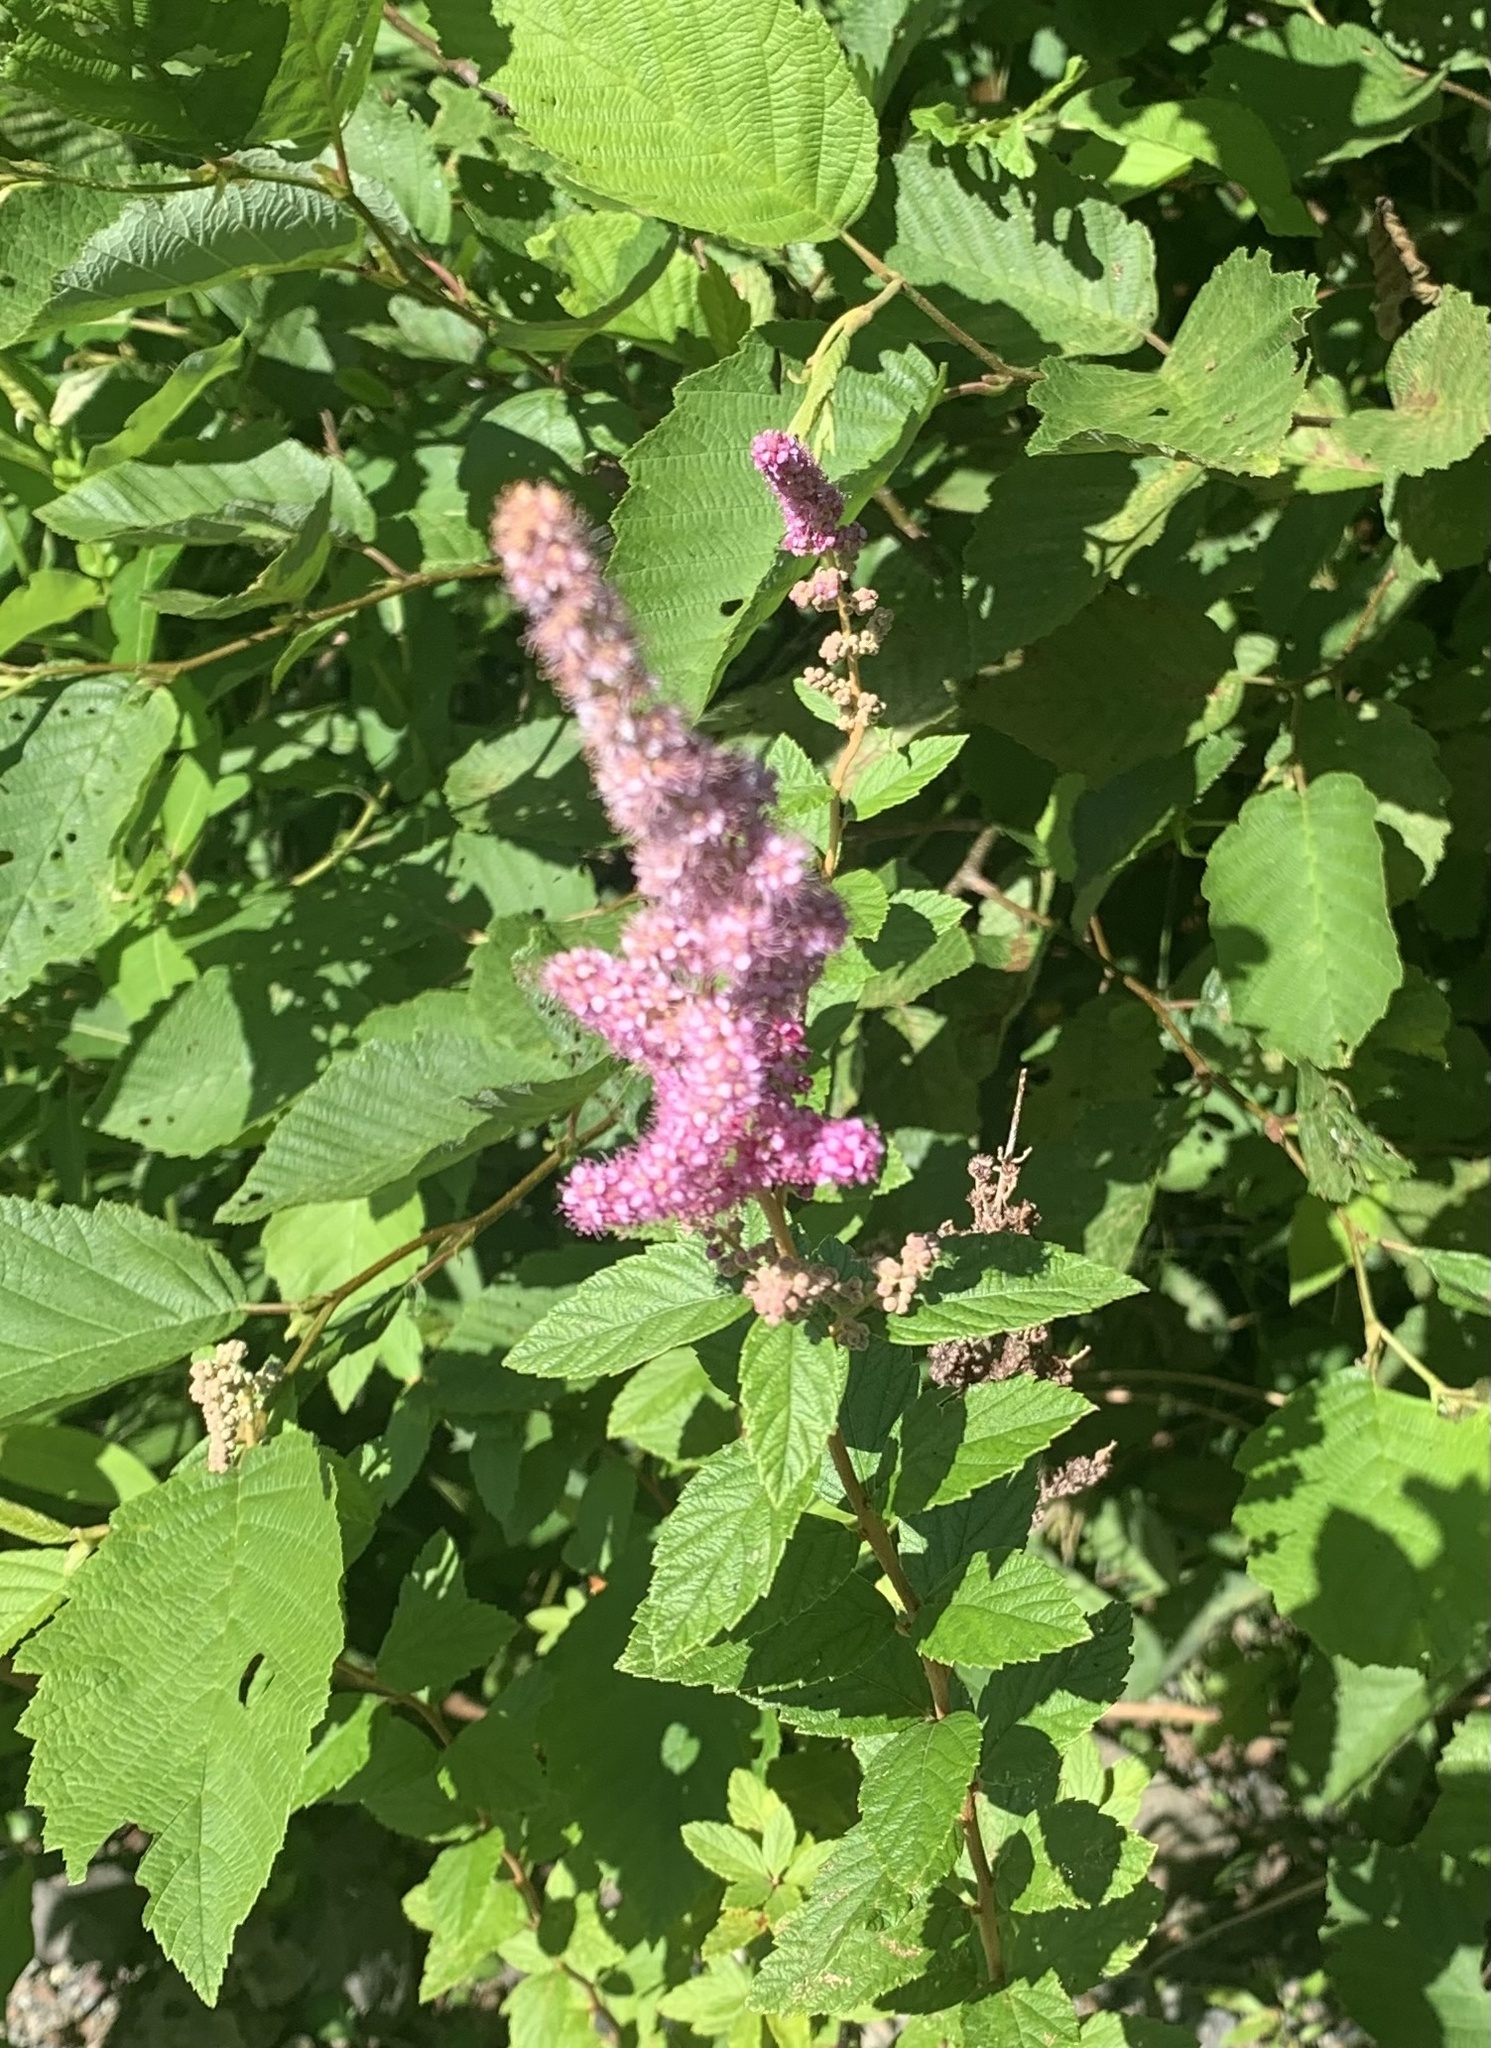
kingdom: Plantae
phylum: Tracheophyta
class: Magnoliopsida
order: Rosales
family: Rosaceae
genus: Spiraea
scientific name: Spiraea tomentosa
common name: Hardhack
